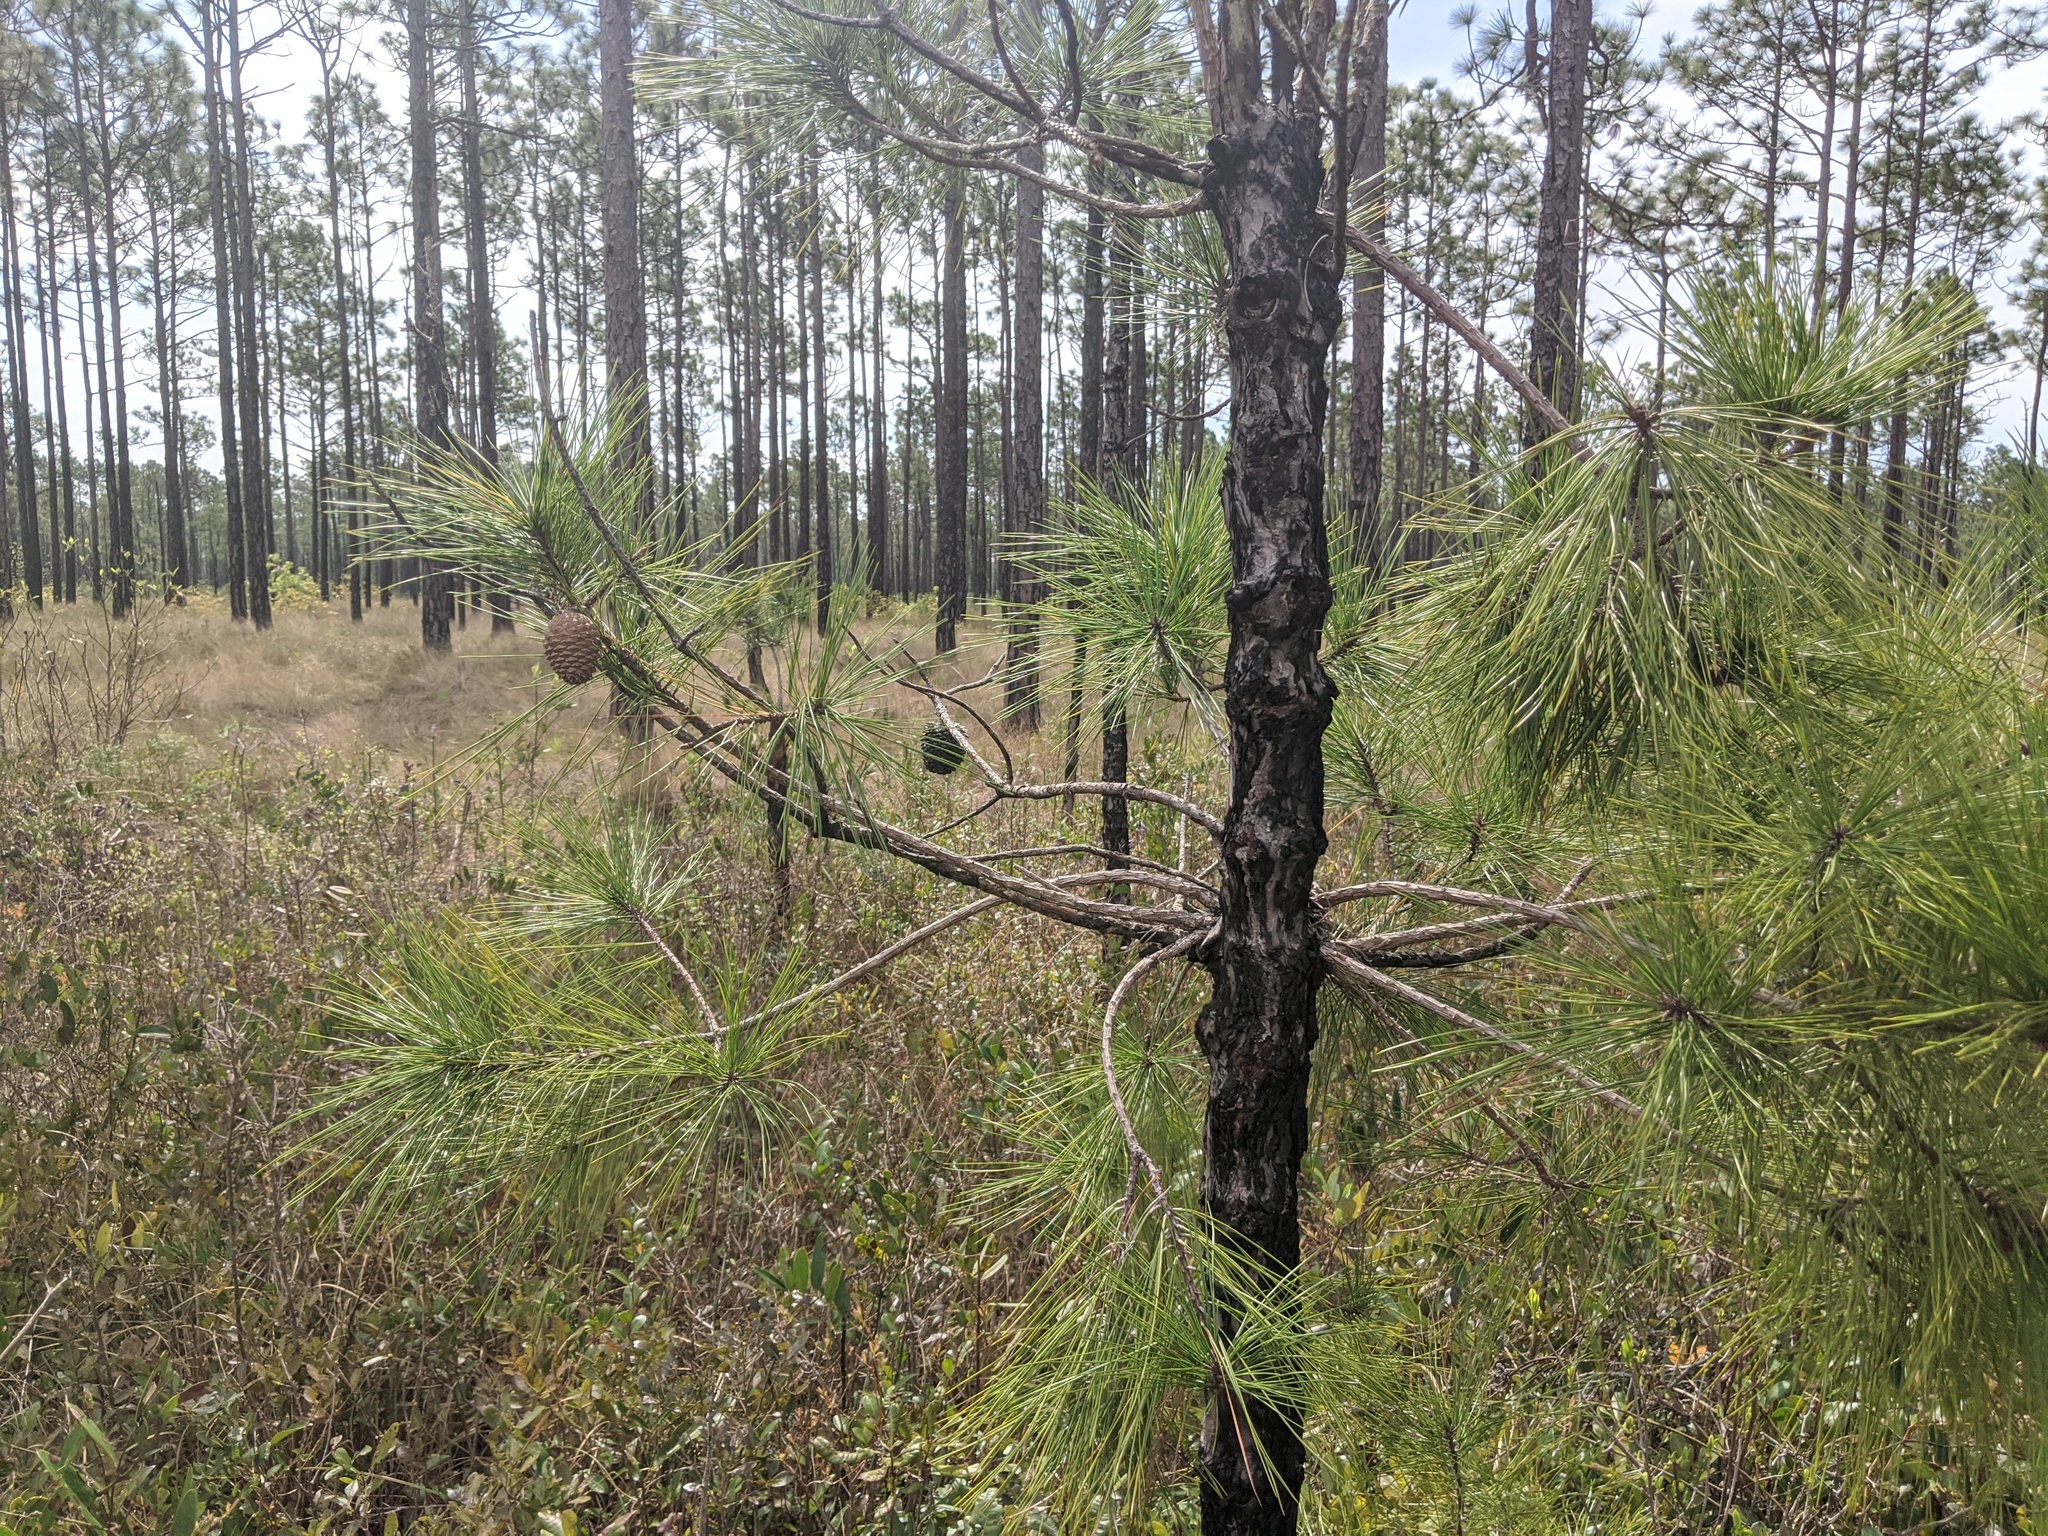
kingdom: Plantae
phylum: Tracheophyta
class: Pinopsida
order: Pinales
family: Pinaceae
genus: Pinus
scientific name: Pinus serotina
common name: Marsh pine
